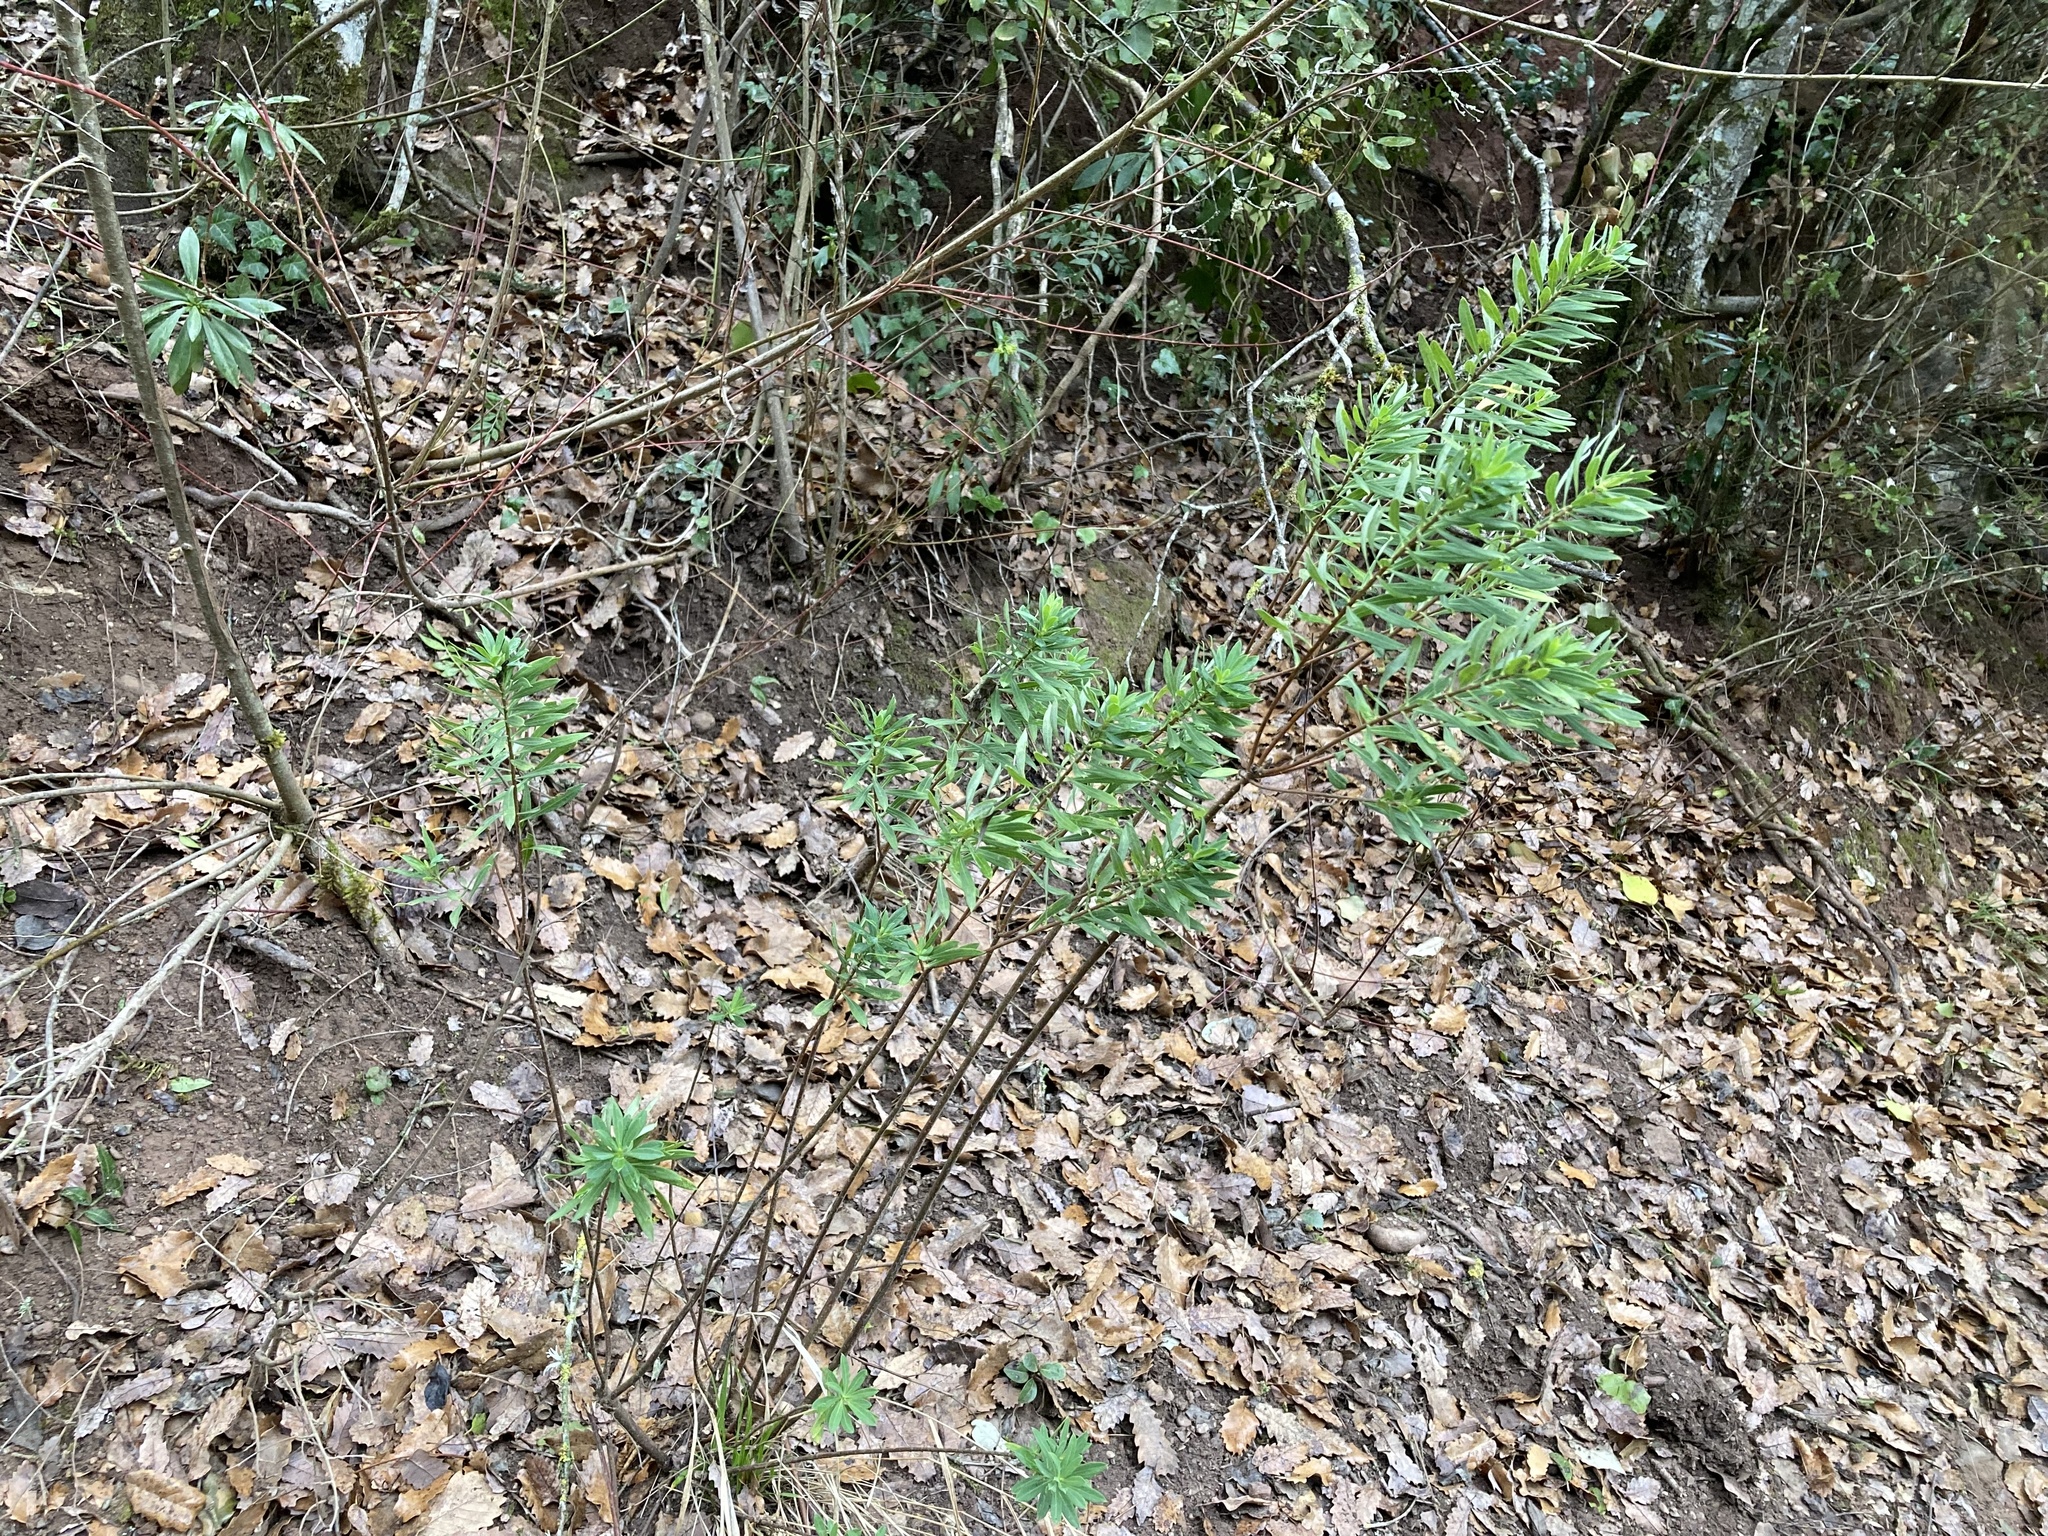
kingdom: Plantae
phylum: Tracheophyta
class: Magnoliopsida
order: Malvales
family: Thymelaeaceae
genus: Daphne
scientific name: Daphne gnidium
